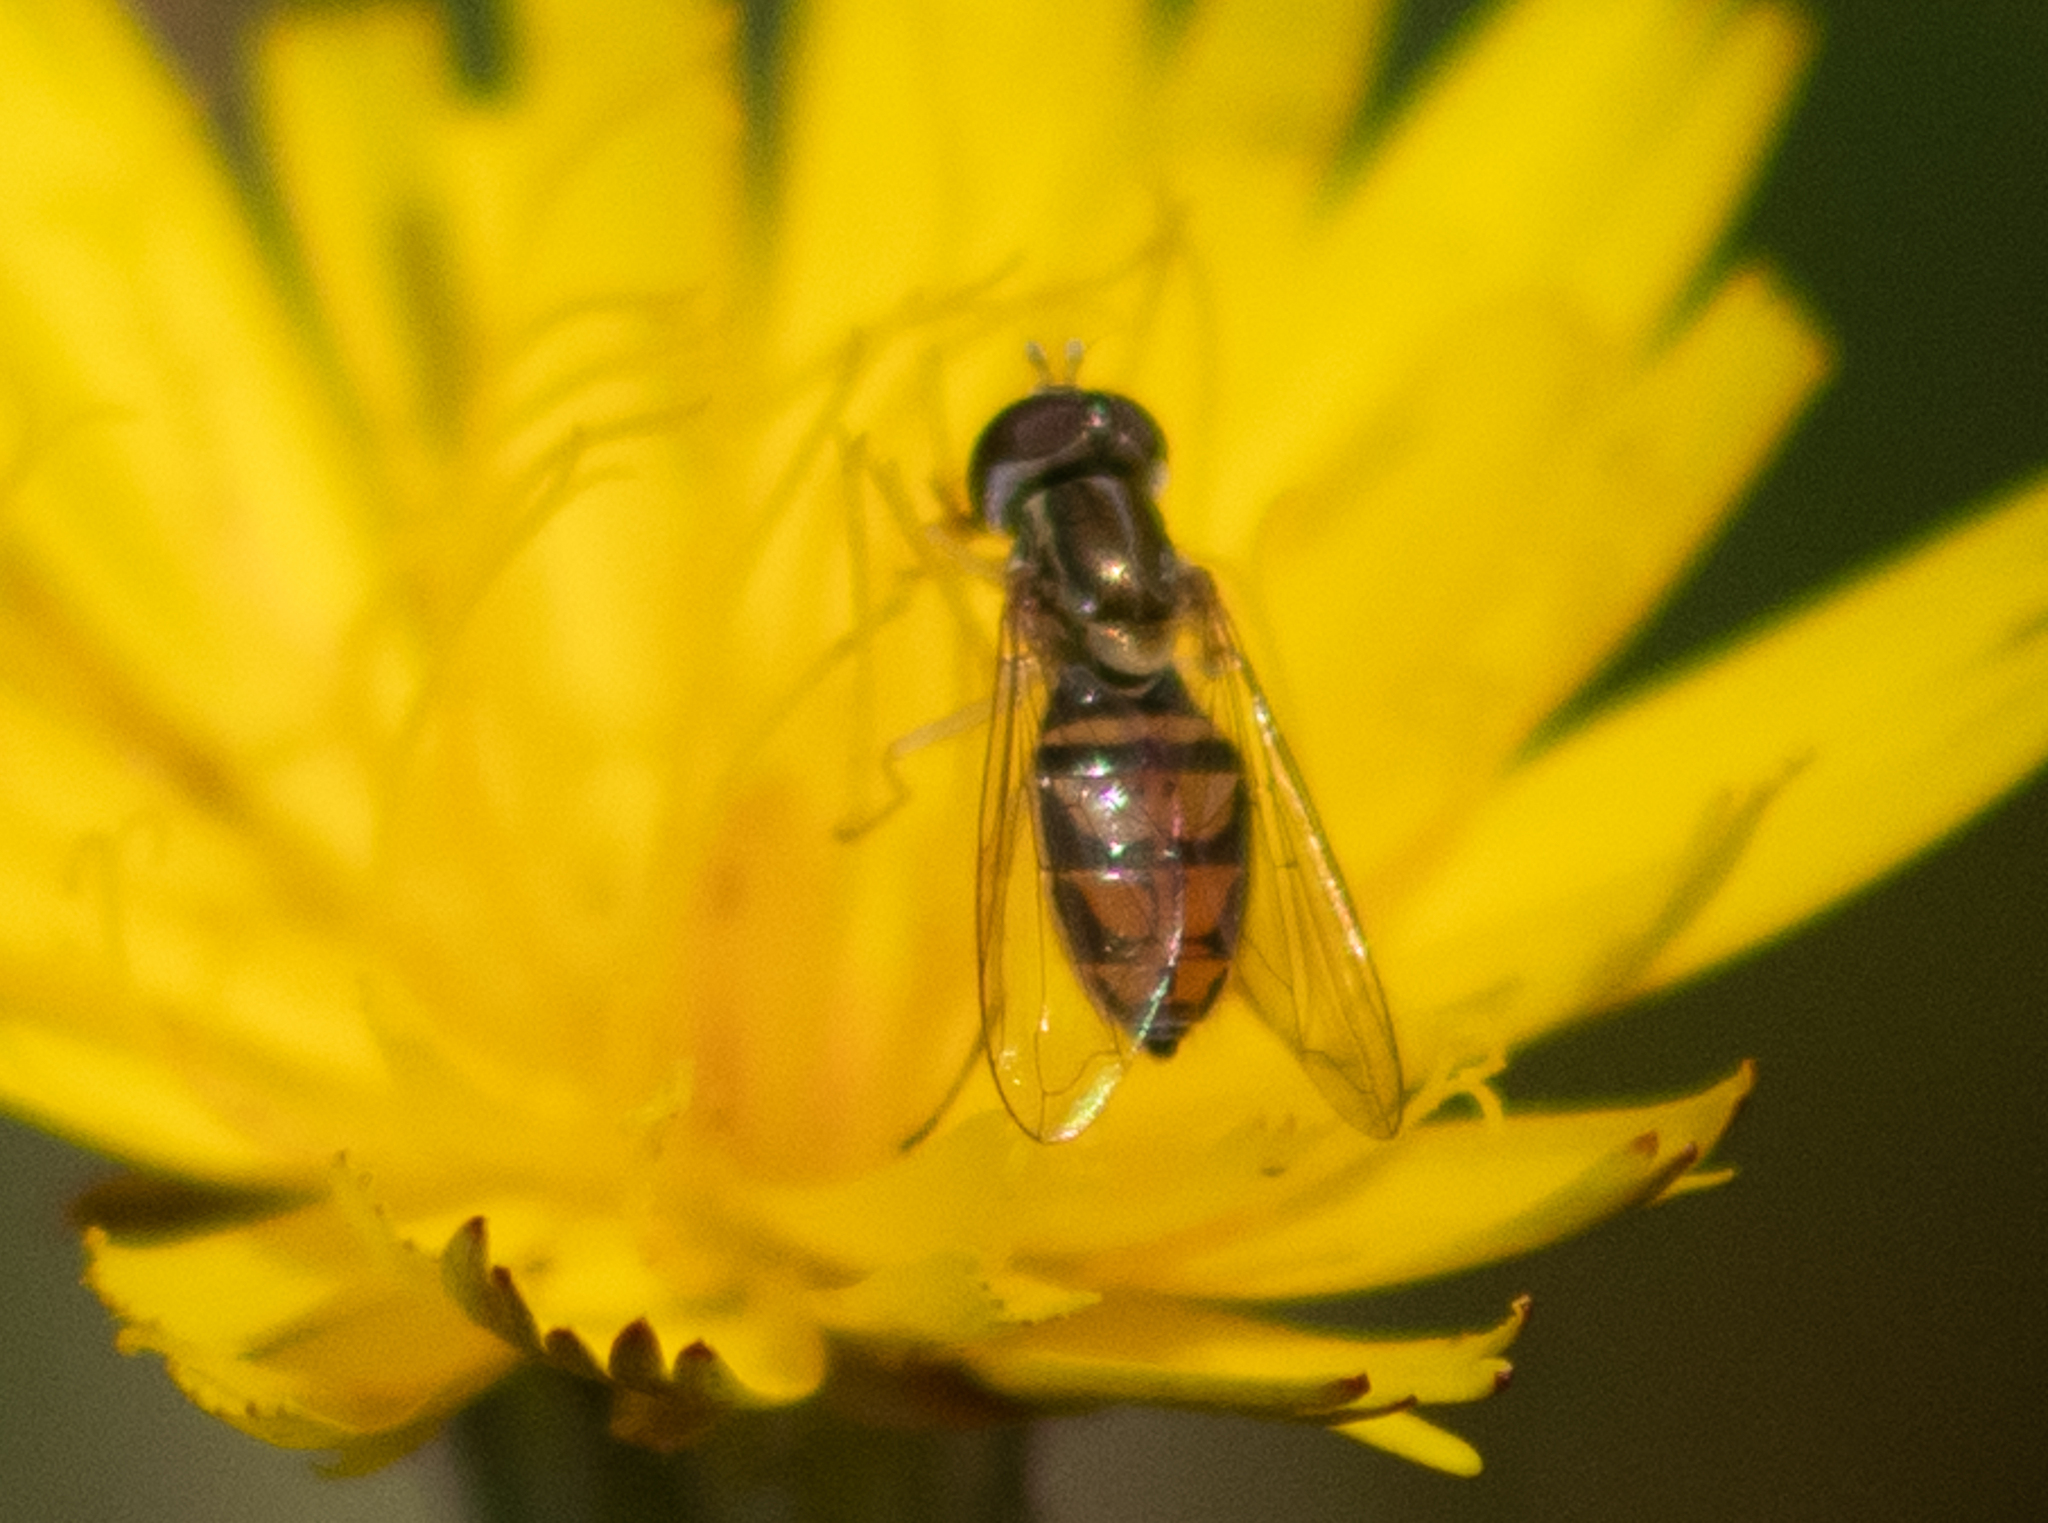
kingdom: Animalia
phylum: Arthropoda
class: Insecta
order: Diptera
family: Syrphidae
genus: Toxomerus
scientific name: Toxomerus marginatus
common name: Syrphid fly
